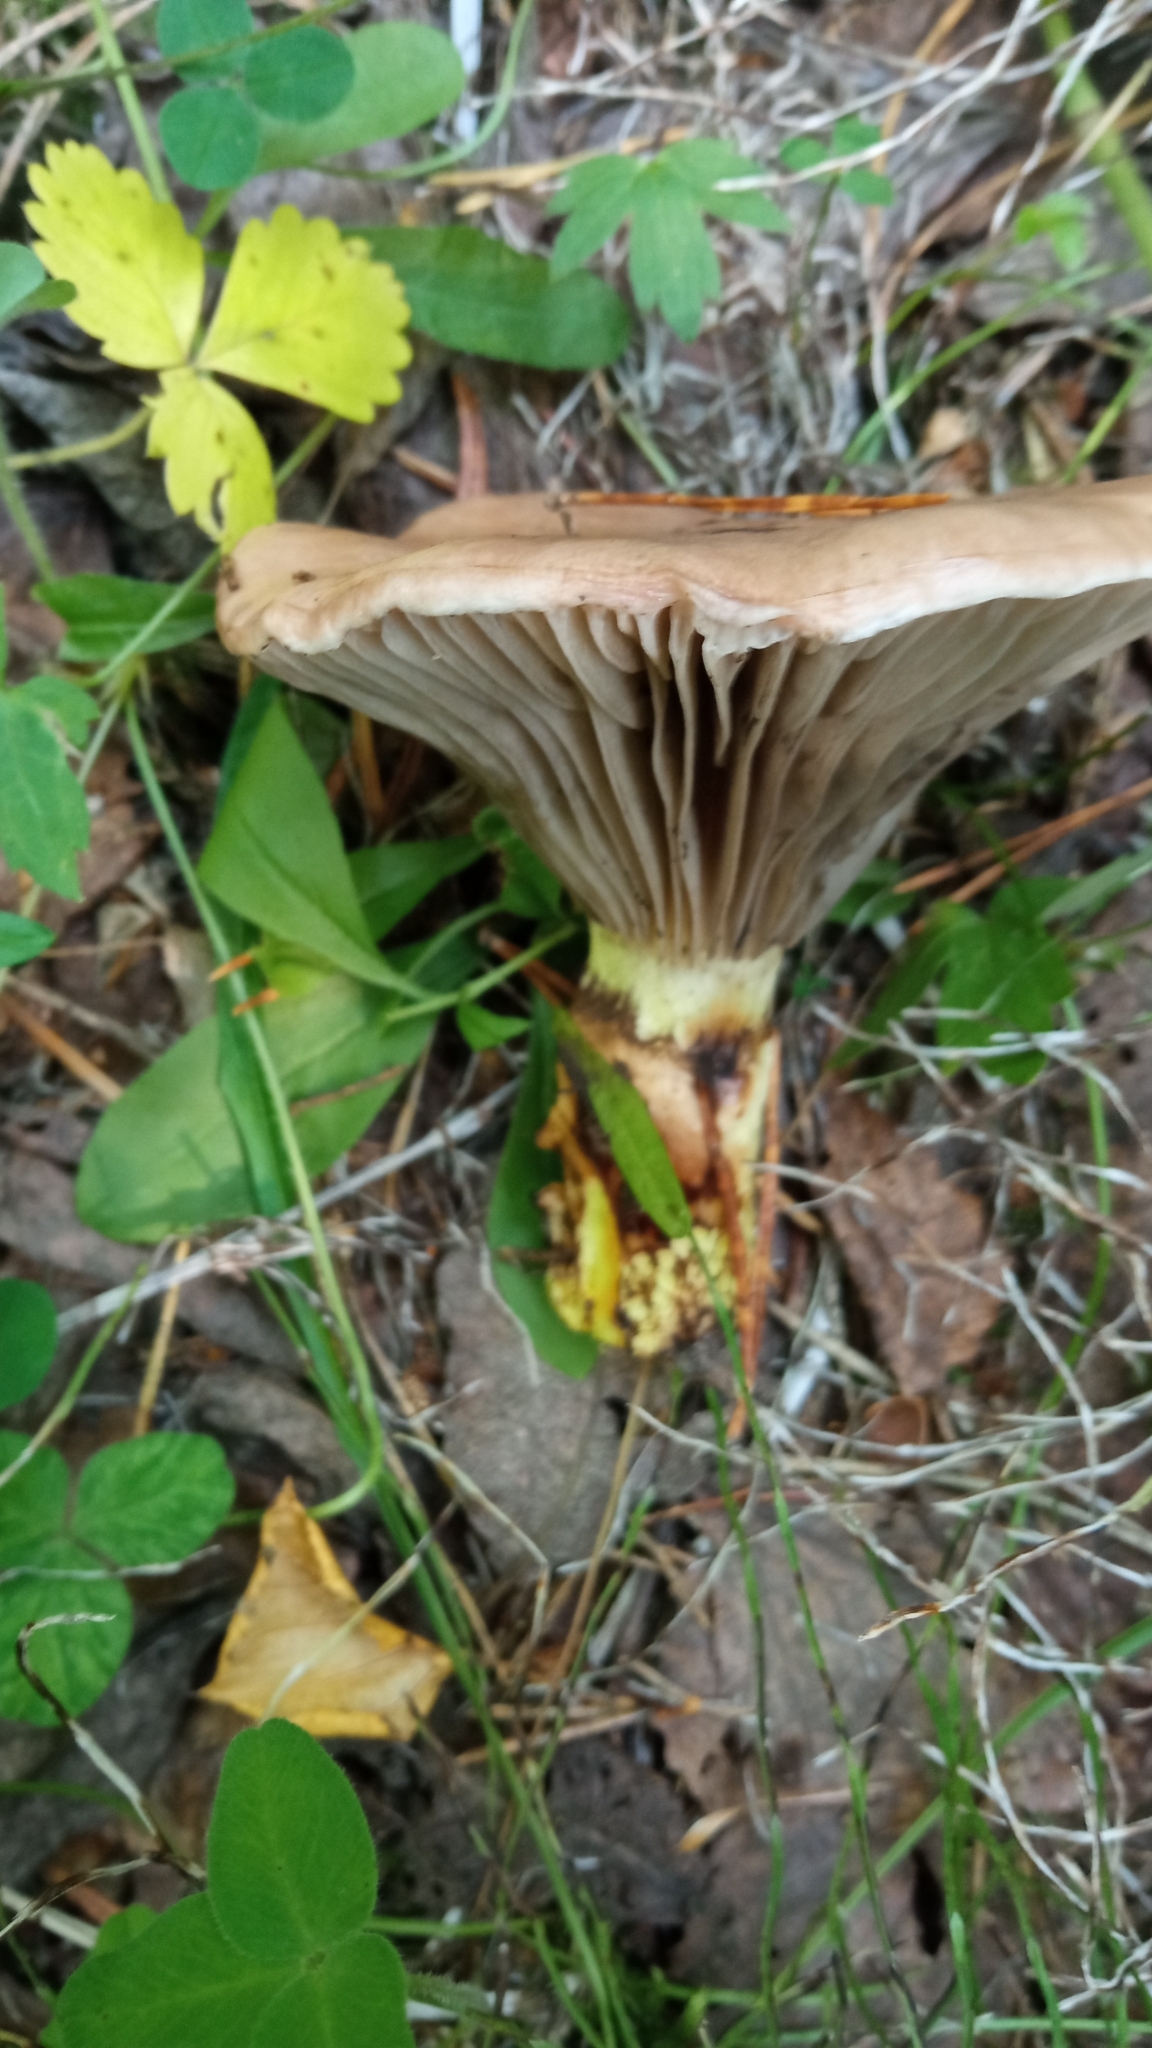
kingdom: Fungi
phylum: Basidiomycota
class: Agaricomycetes
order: Boletales
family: Gomphidiaceae
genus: Gomphidius
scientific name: Gomphidius glutinosus
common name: Slimy spike
